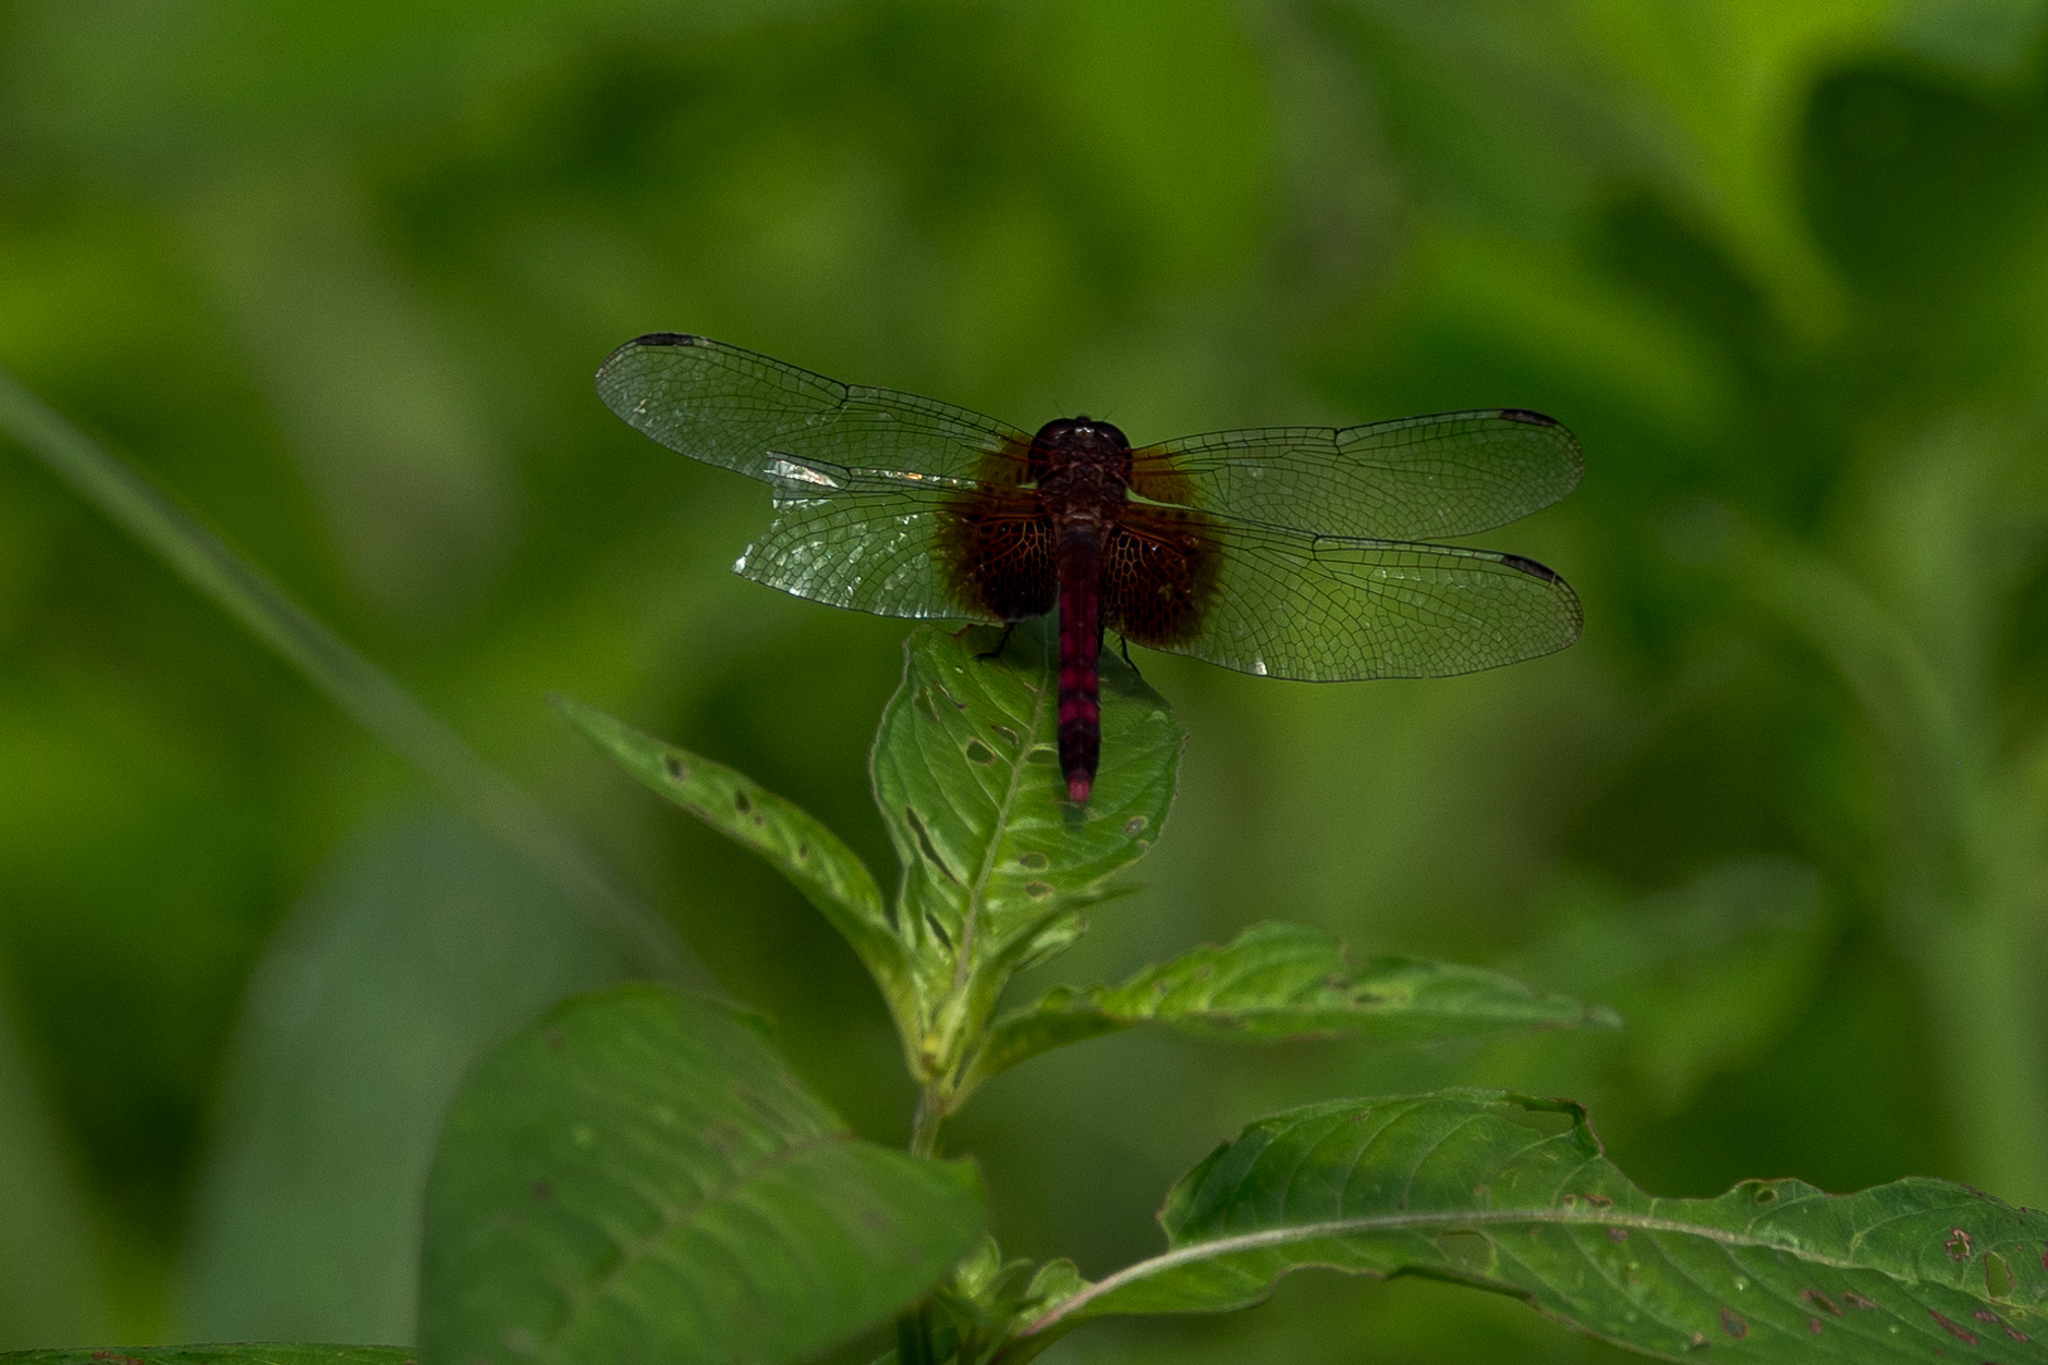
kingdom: Animalia
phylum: Arthropoda
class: Insecta
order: Odonata
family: Libellulidae
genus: Erythrodiplax
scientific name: Erythrodiplax fervida
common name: Red-mantled dragonlet
